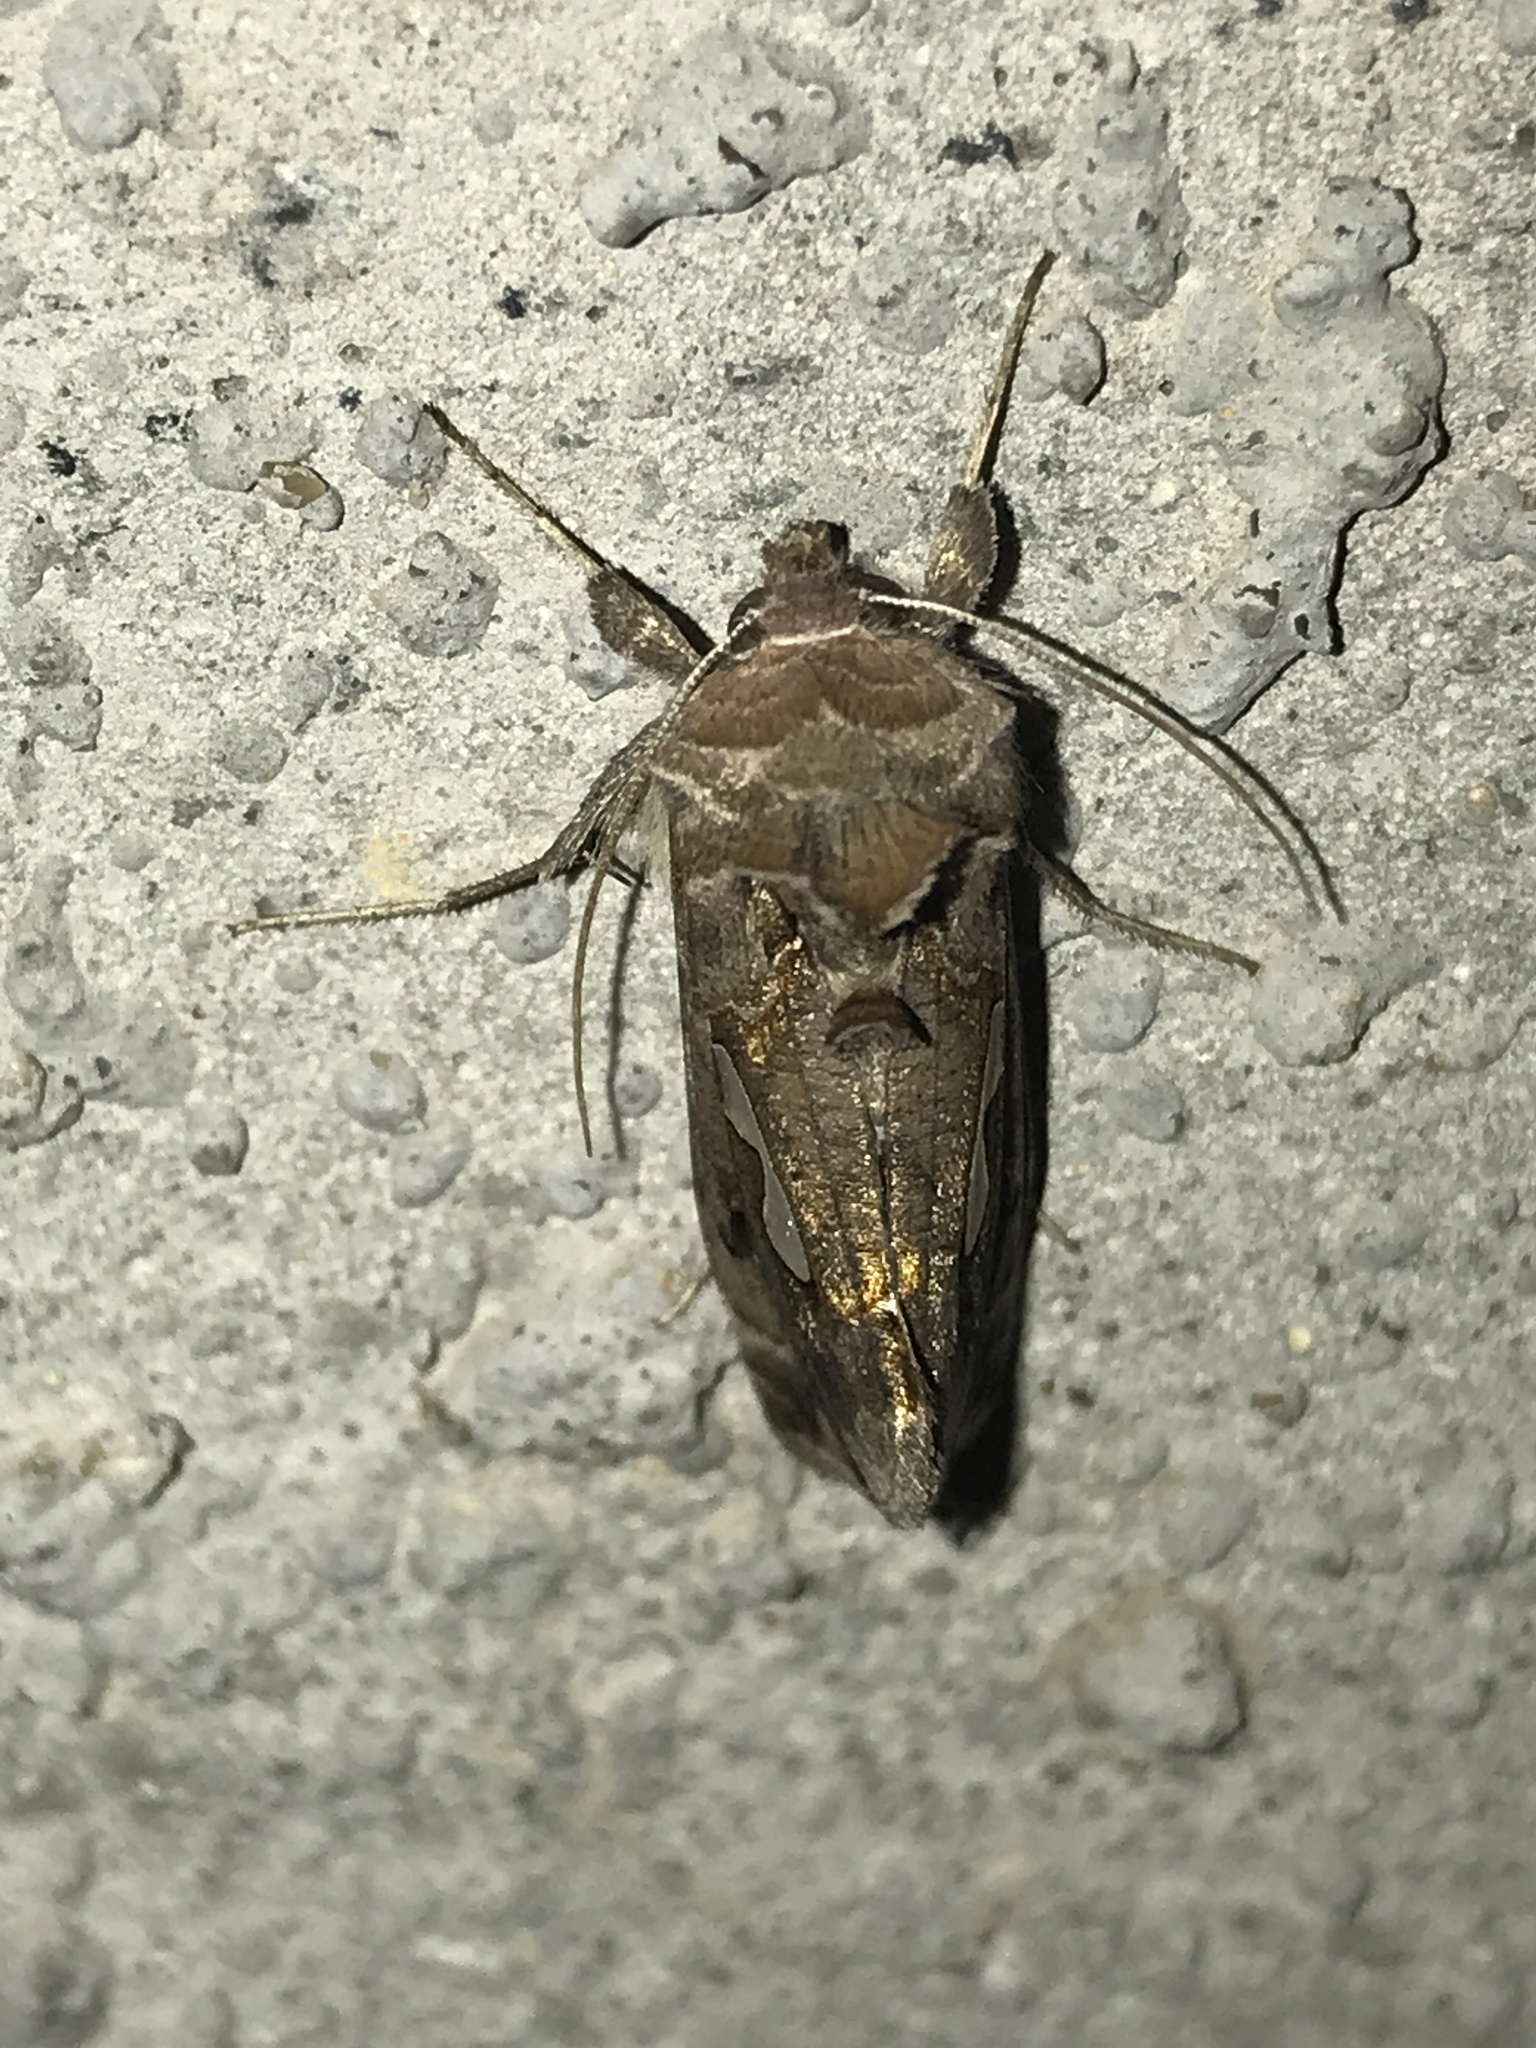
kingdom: Animalia
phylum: Arthropoda
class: Insecta
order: Lepidoptera
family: Noctuidae
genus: Megalographa
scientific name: Megalographa biloba
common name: Cutworm
